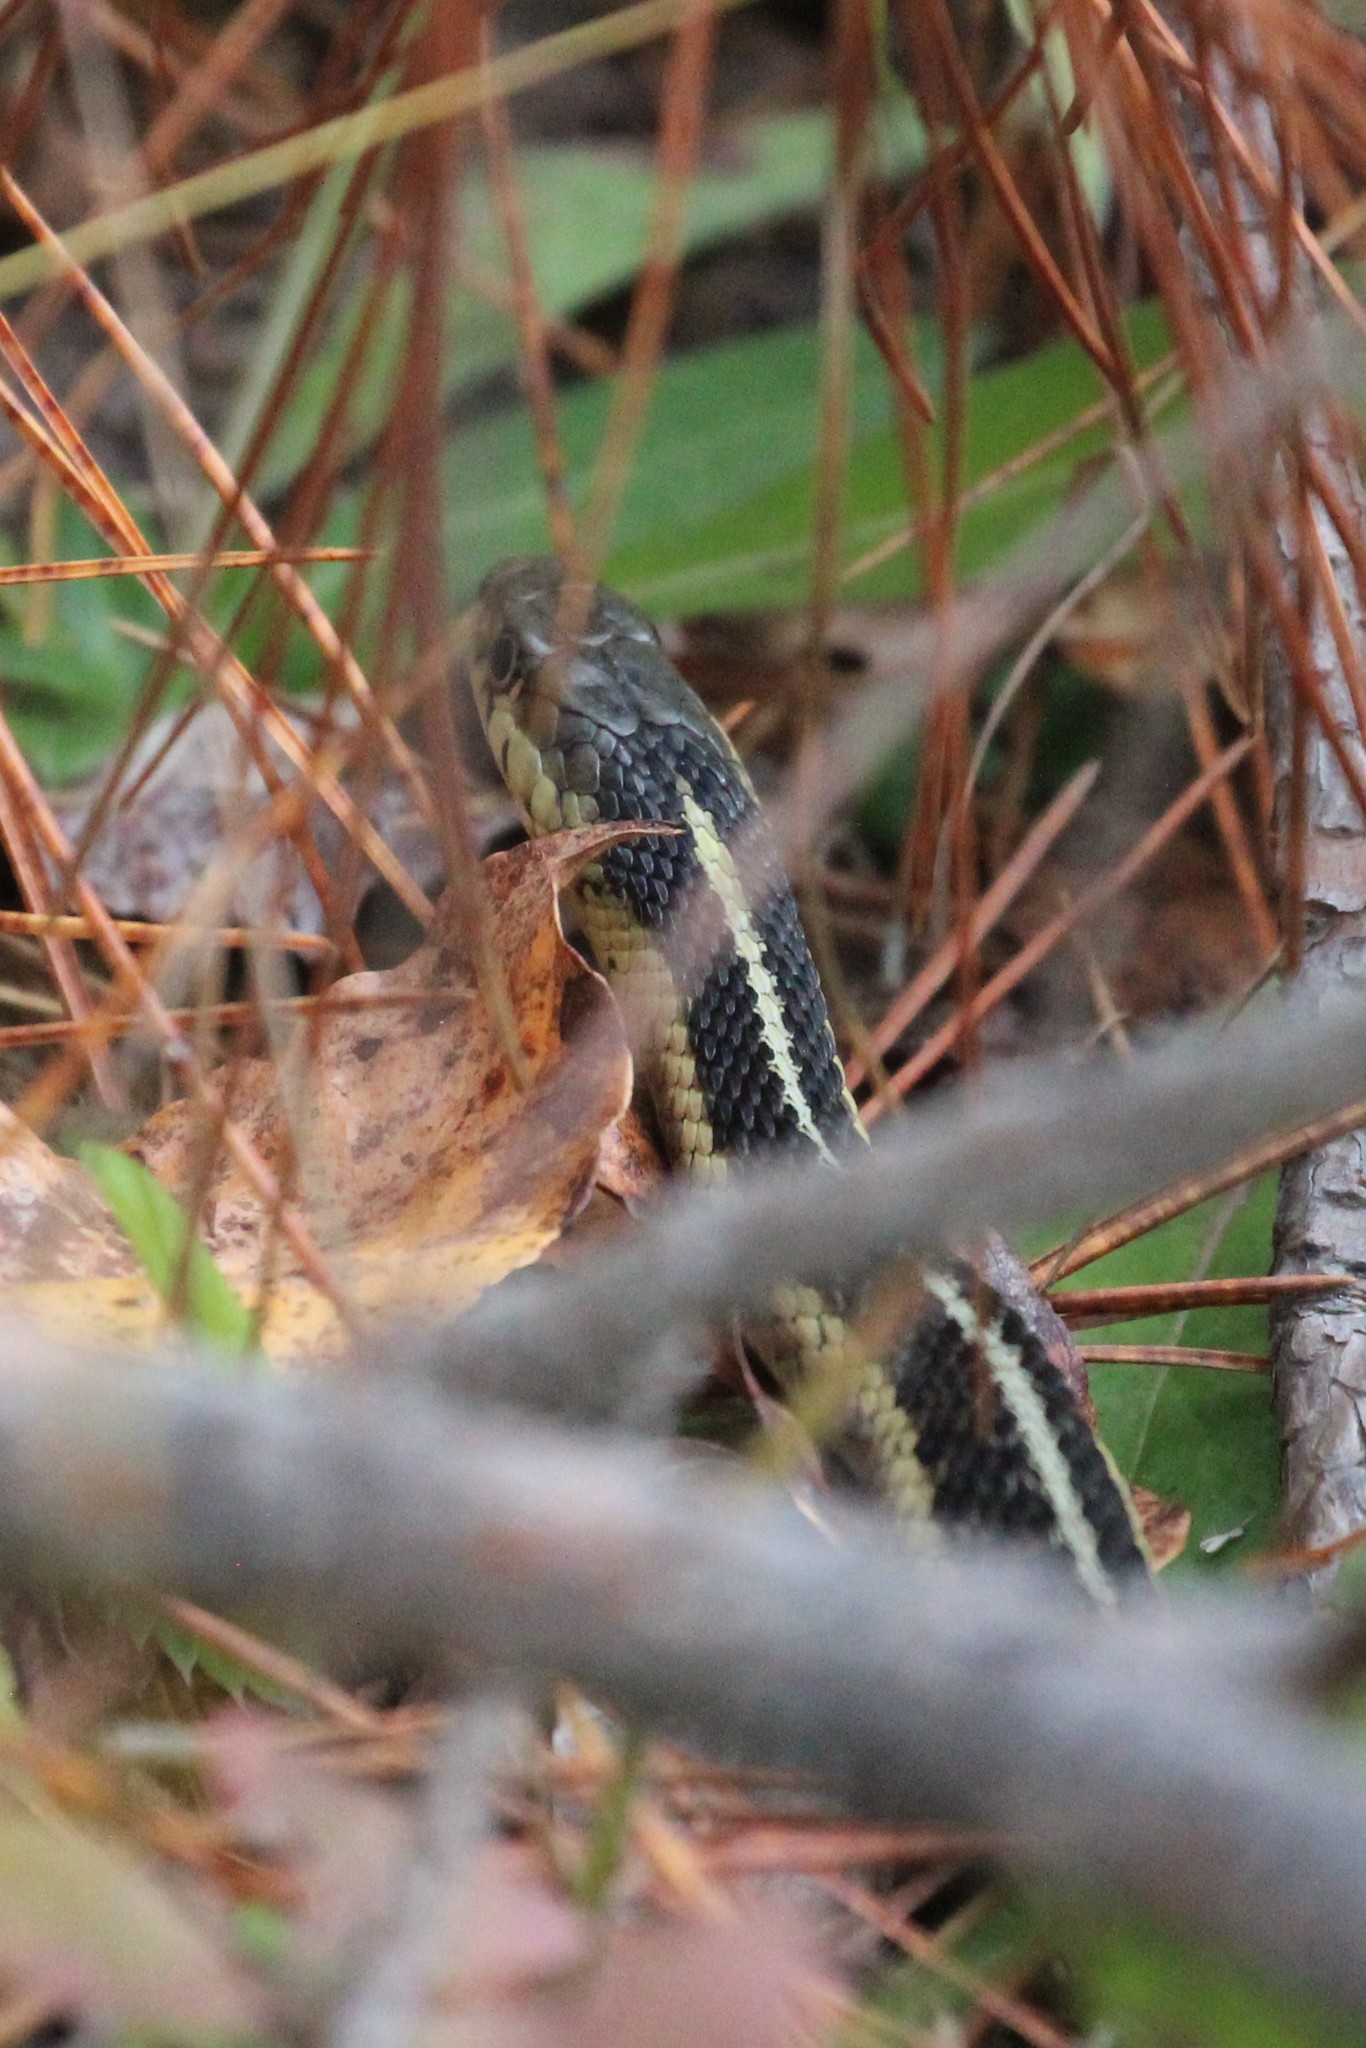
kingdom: Animalia
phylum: Chordata
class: Squamata
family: Colubridae
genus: Thamnophis
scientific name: Thamnophis sirtalis
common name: Common garter snake
